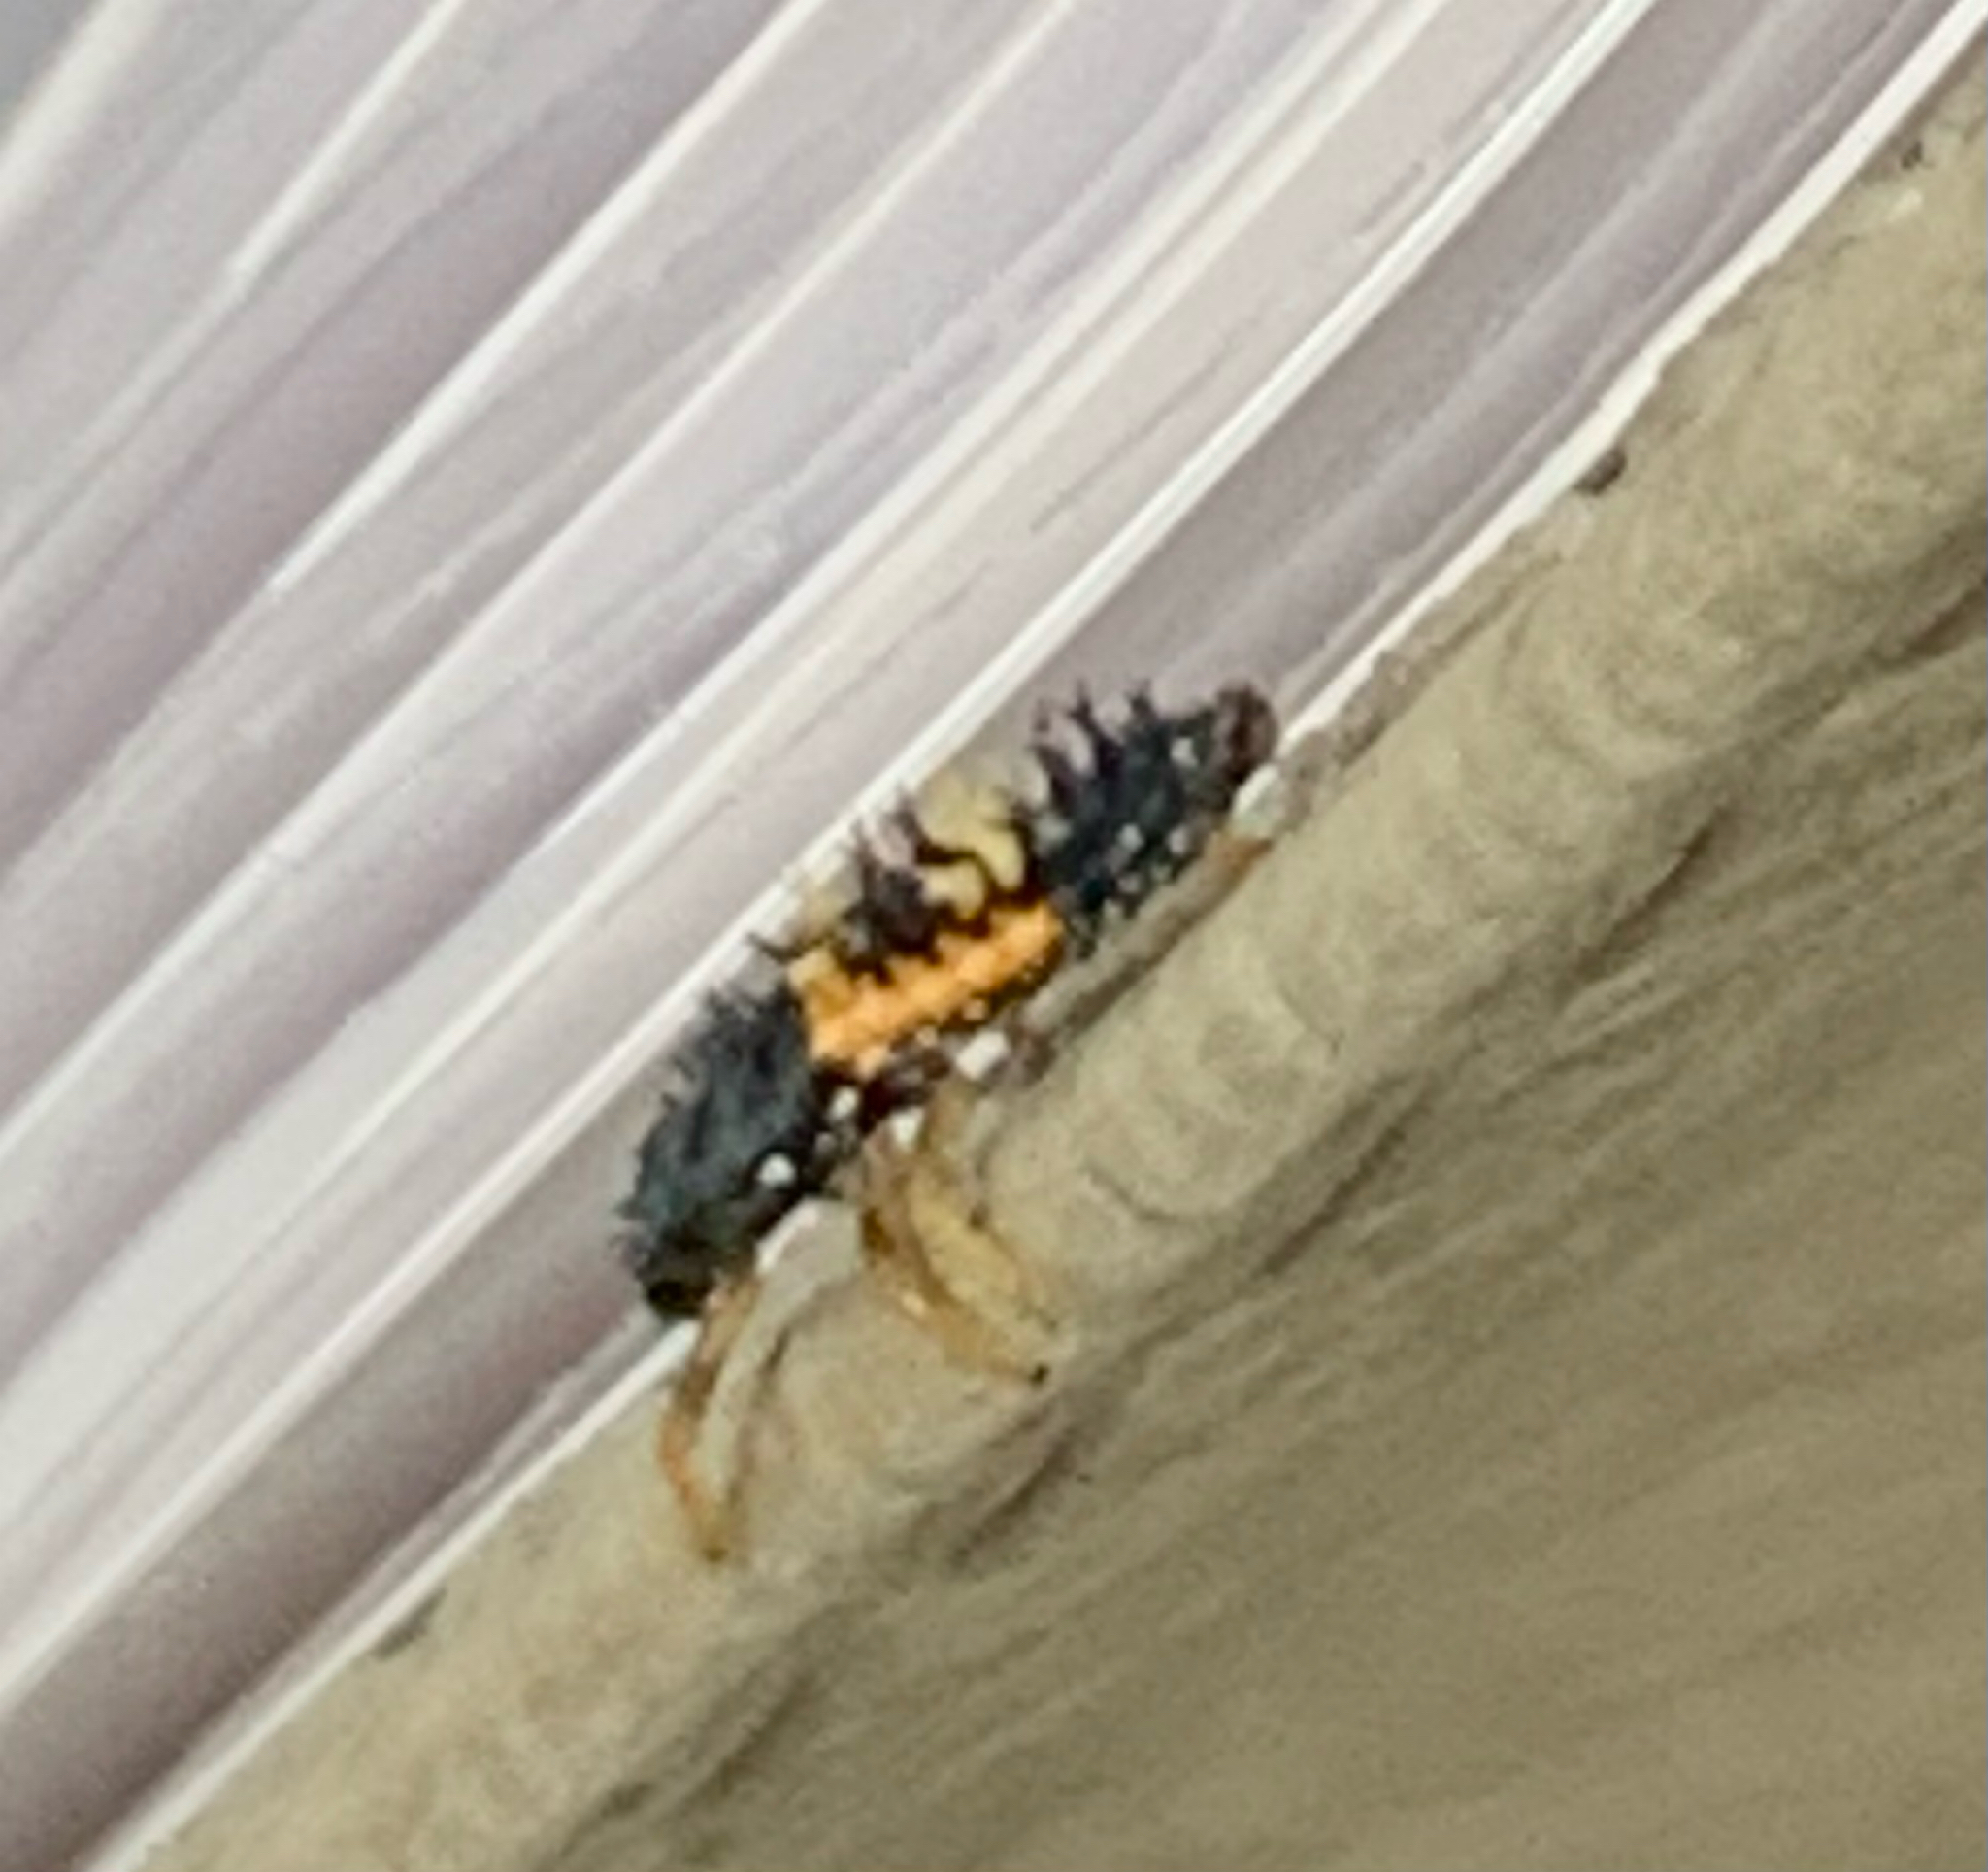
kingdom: Animalia
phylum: Arthropoda
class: Insecta
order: Coleoptera
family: Coccinellidae
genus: Harmonia
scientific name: Harmonia axyridis
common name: Harlequin ladybird
